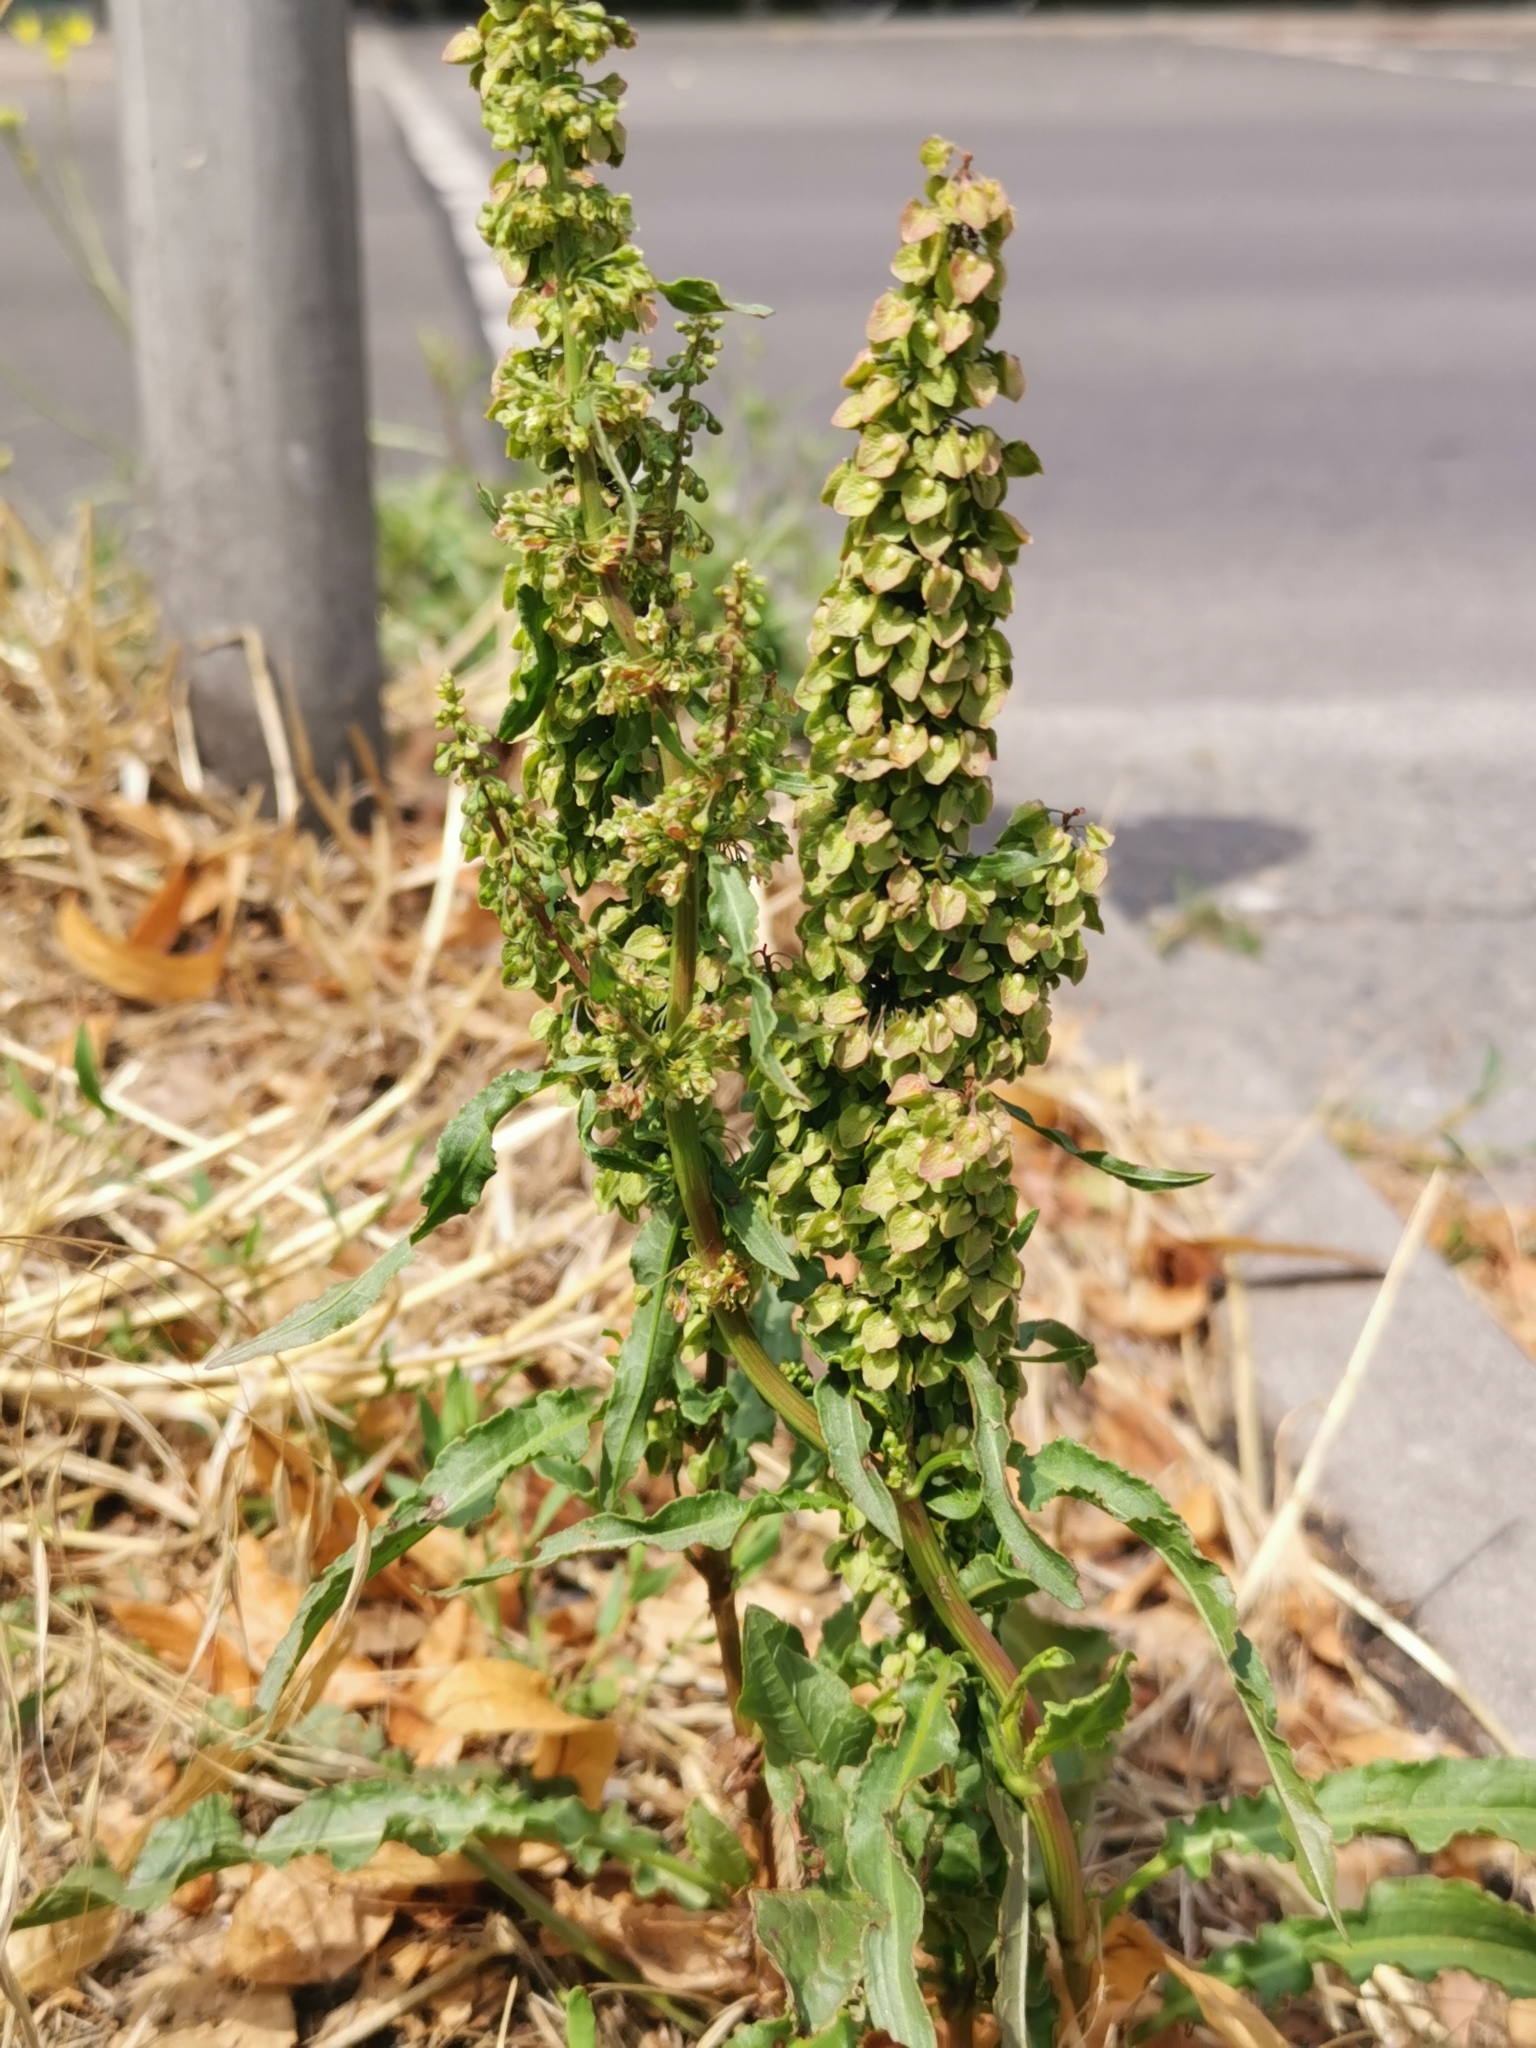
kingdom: Plantae
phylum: Tracheophyta
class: Magnoliopsida
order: Caryophyllales
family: Polygonaceae
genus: Rumex
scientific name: Rumex crispus
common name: Curled dock
